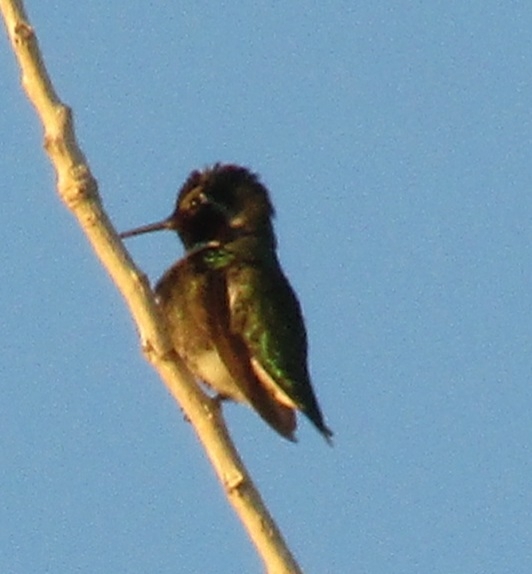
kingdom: Animalia
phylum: Chordata
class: Aves
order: Apodiformes
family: Trochilidae
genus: Calypte
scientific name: Calypte anna
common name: Anna's hummingbird
